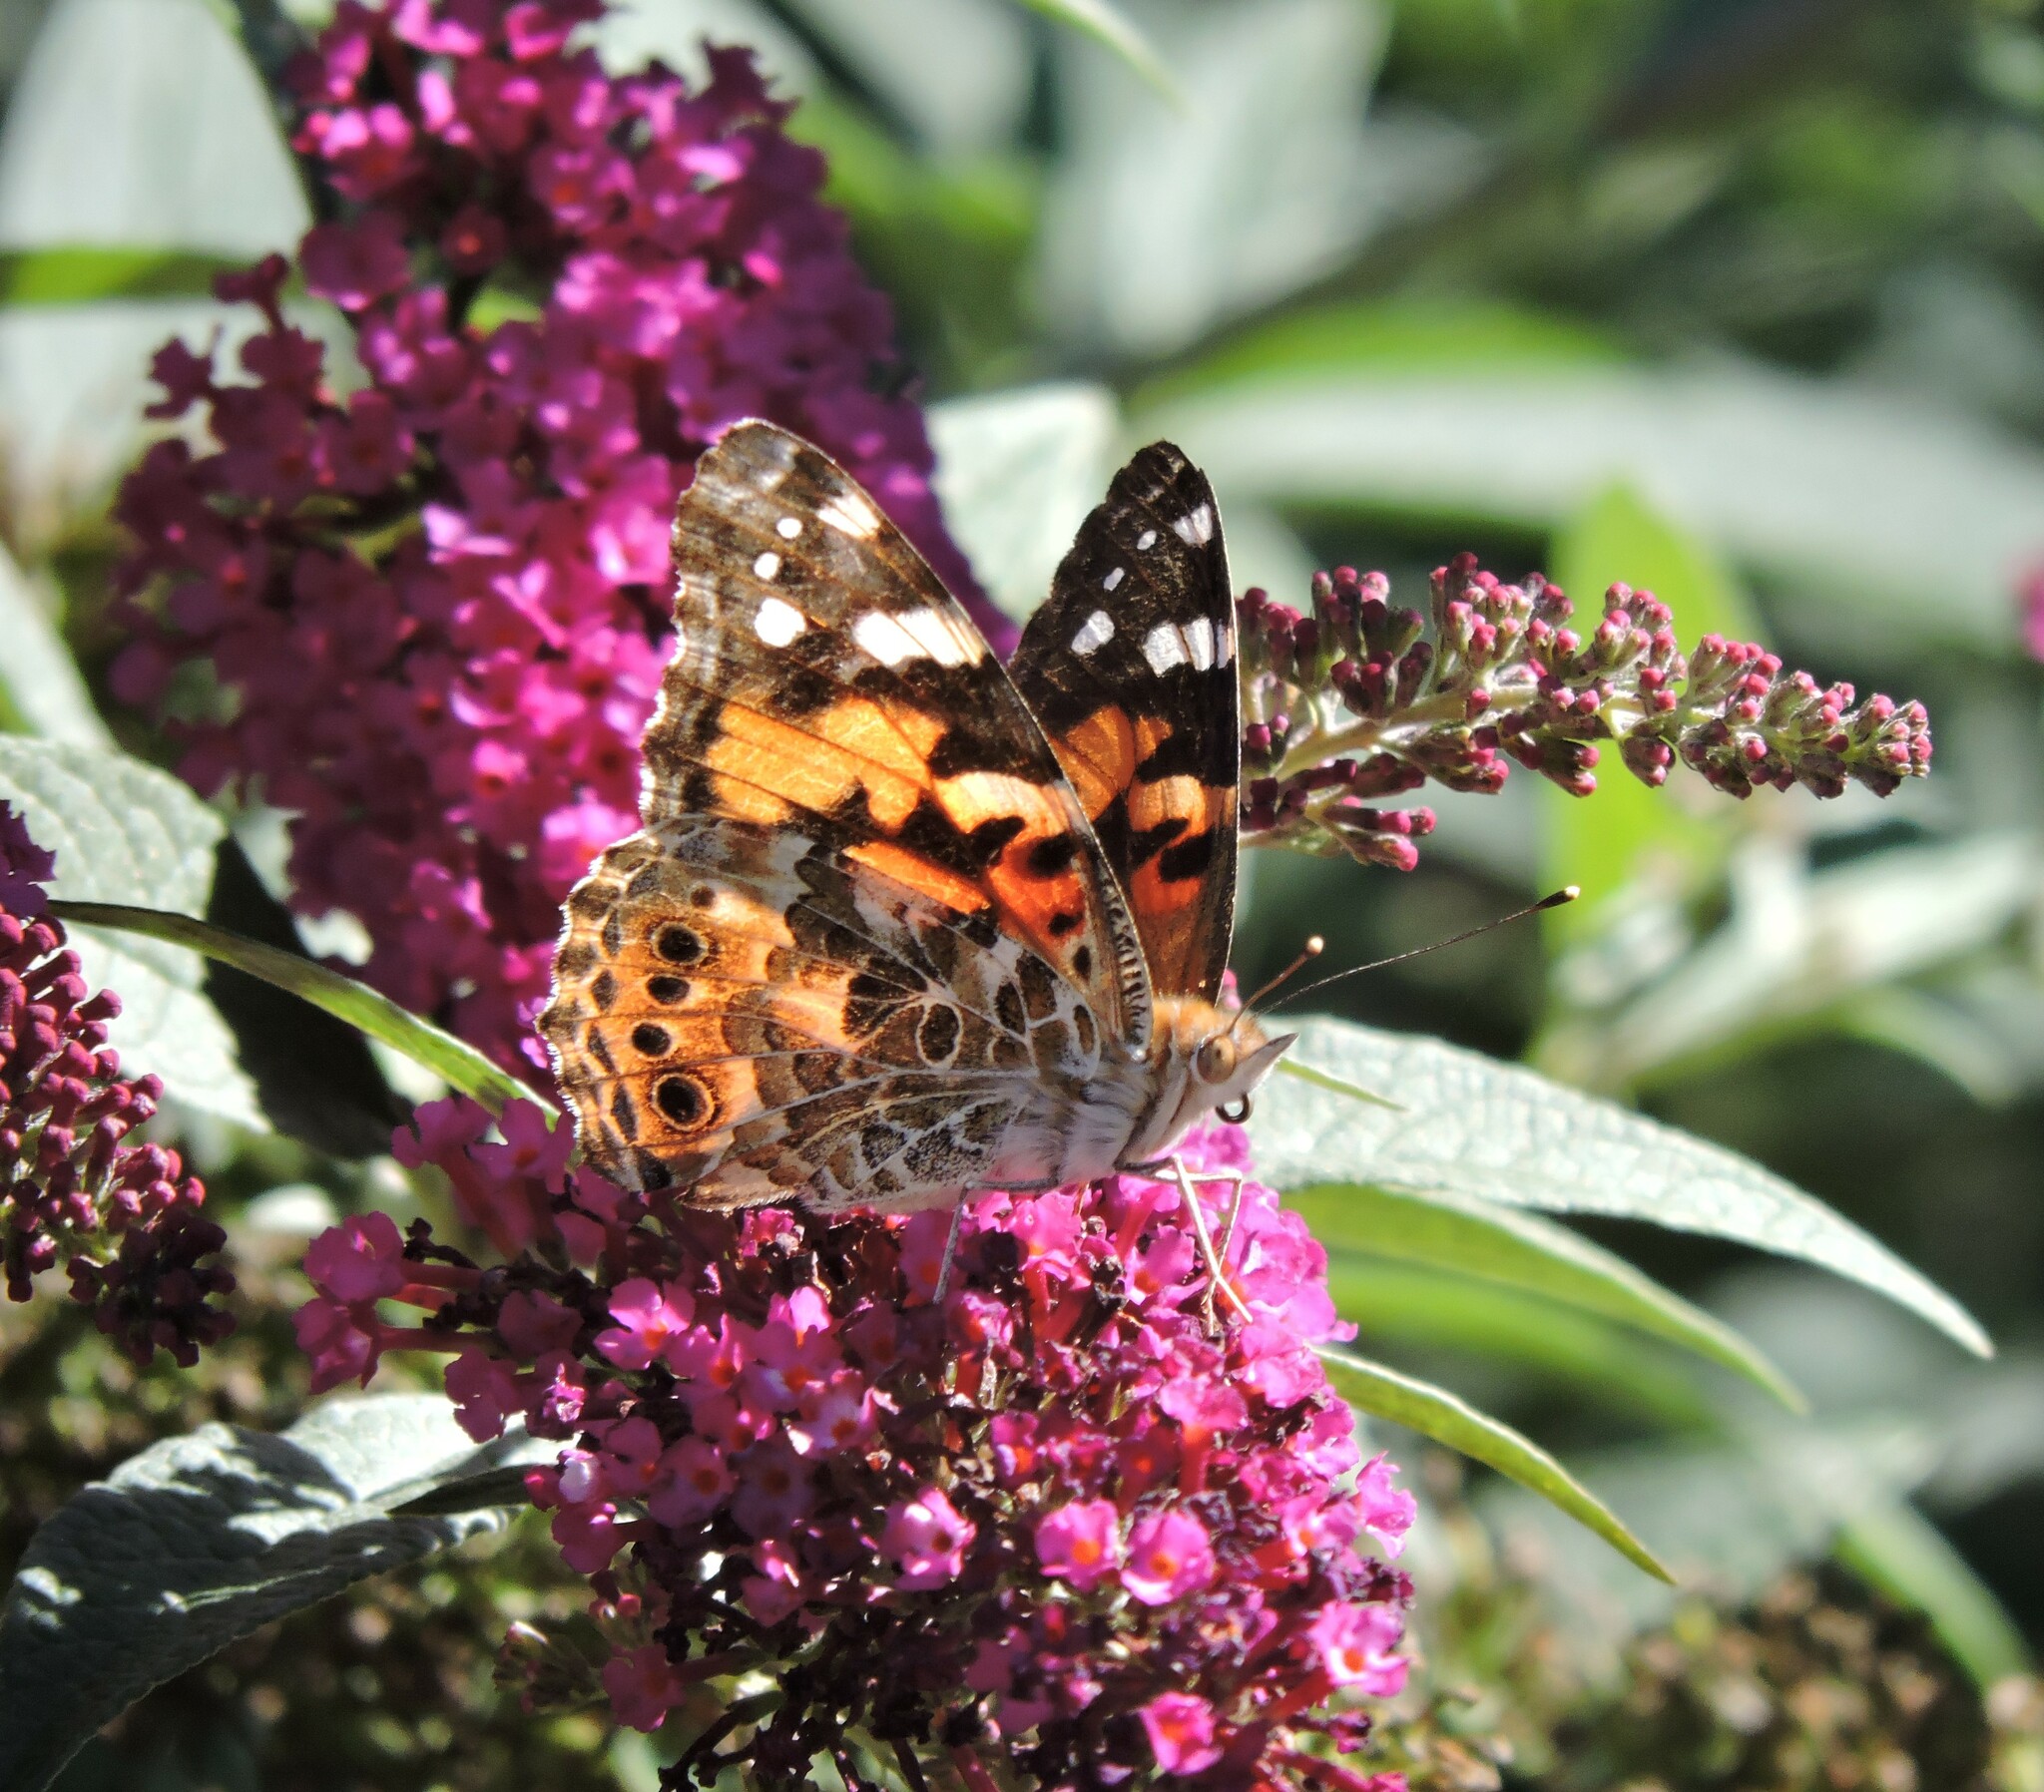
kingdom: Animalia
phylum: Arthropoda
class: Insecta
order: Lepidoptera
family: Nymphalidae
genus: Vanessa
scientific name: Vanessa cardui
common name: Painted lady
